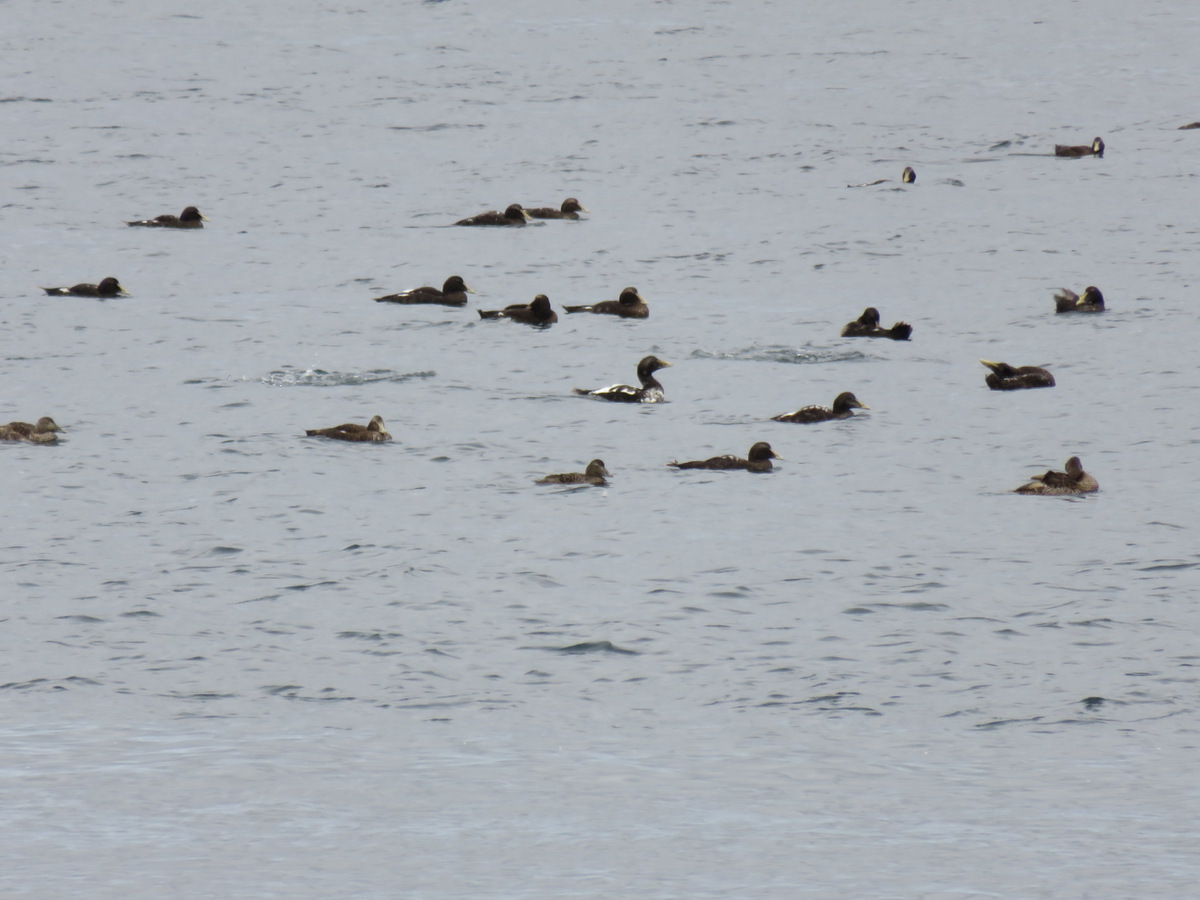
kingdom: Animalia
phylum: Chordata
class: Aves
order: Anseriformes
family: Anatidae
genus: Somateria
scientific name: Somateria mollissima
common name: Common eider
